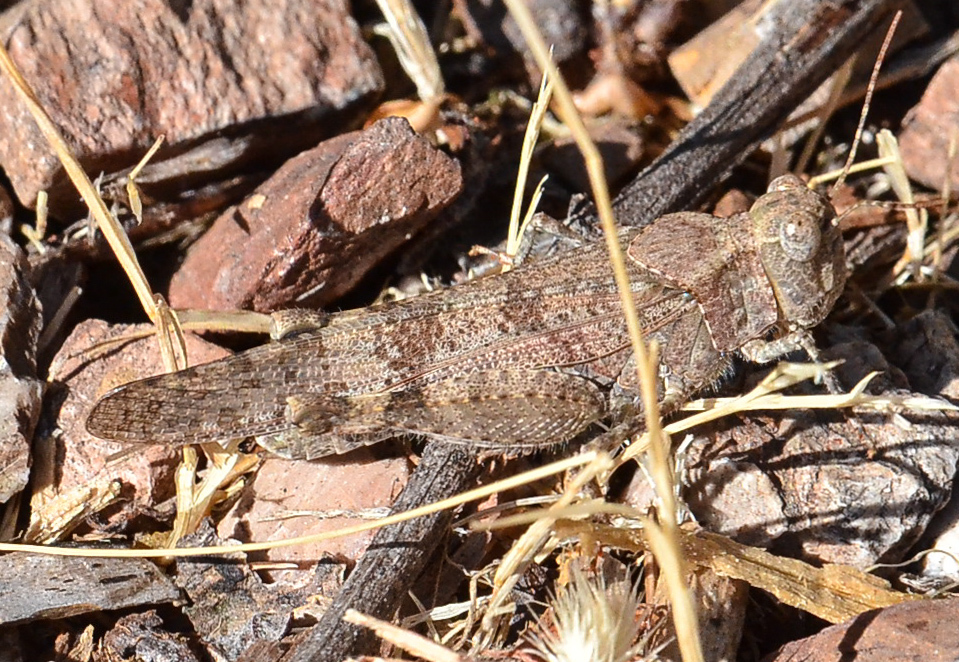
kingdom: Animalia
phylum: Arthropoda
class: Insecta
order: Orthoptera
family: Acrididae
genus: Trimerotropis
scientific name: Trimerotropis occidentalis
